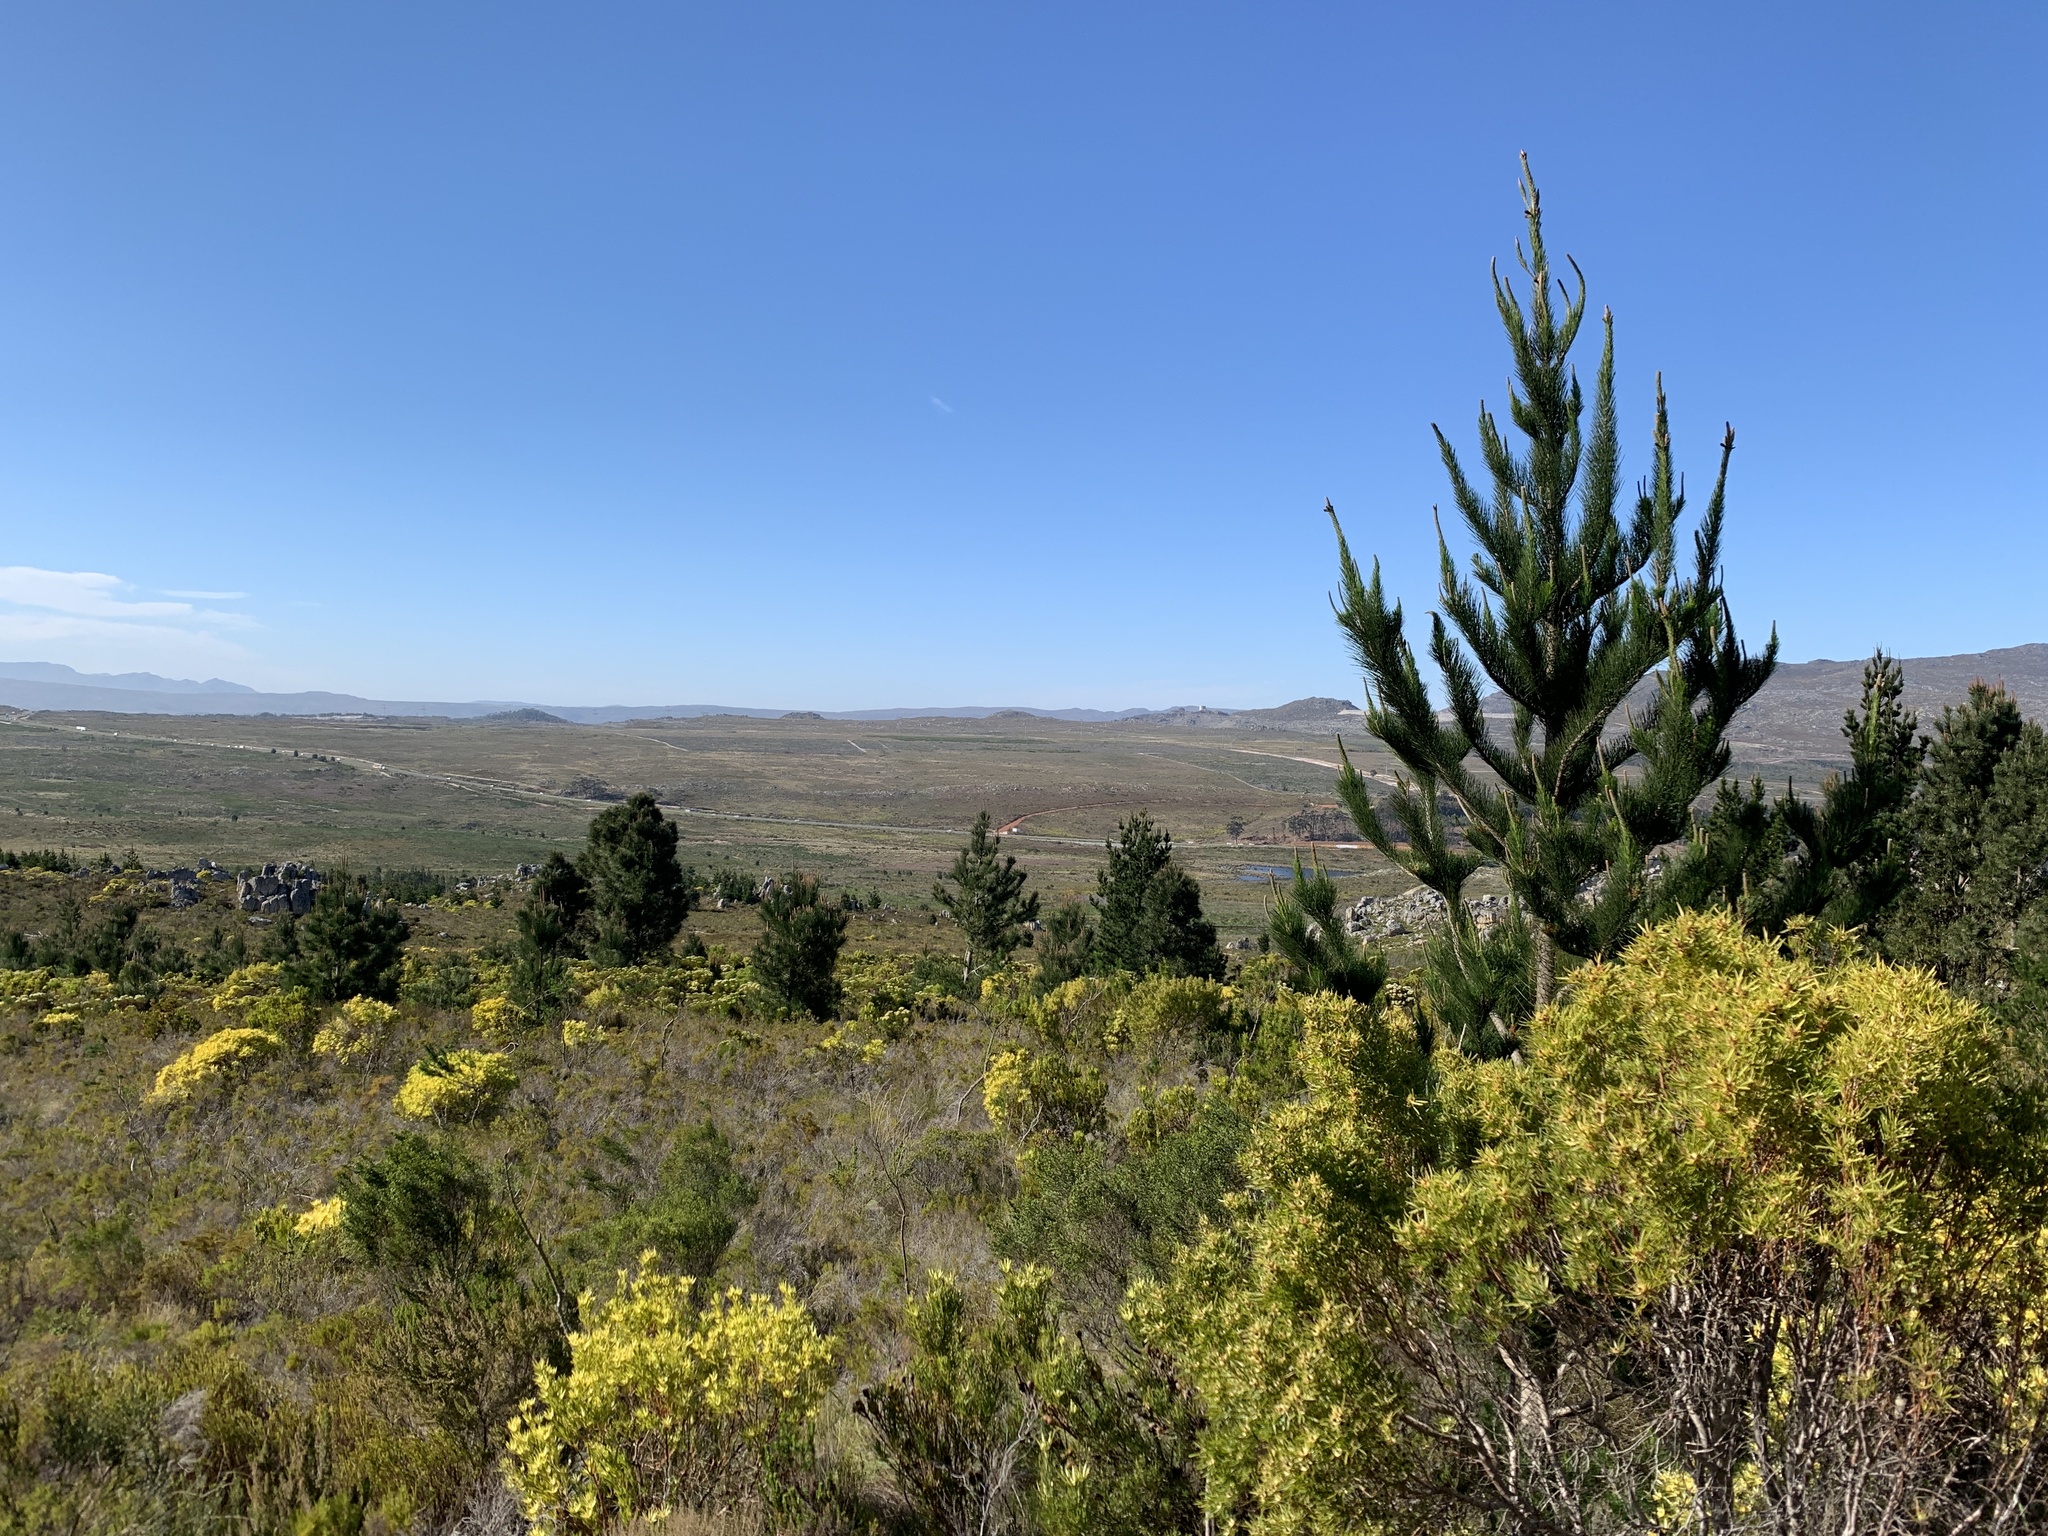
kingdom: Plantae
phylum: Tracheophyta
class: Pinopsida
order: Pinales
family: Pinaceae
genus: Pinus
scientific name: Pinus radiata
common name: Monterey pine
